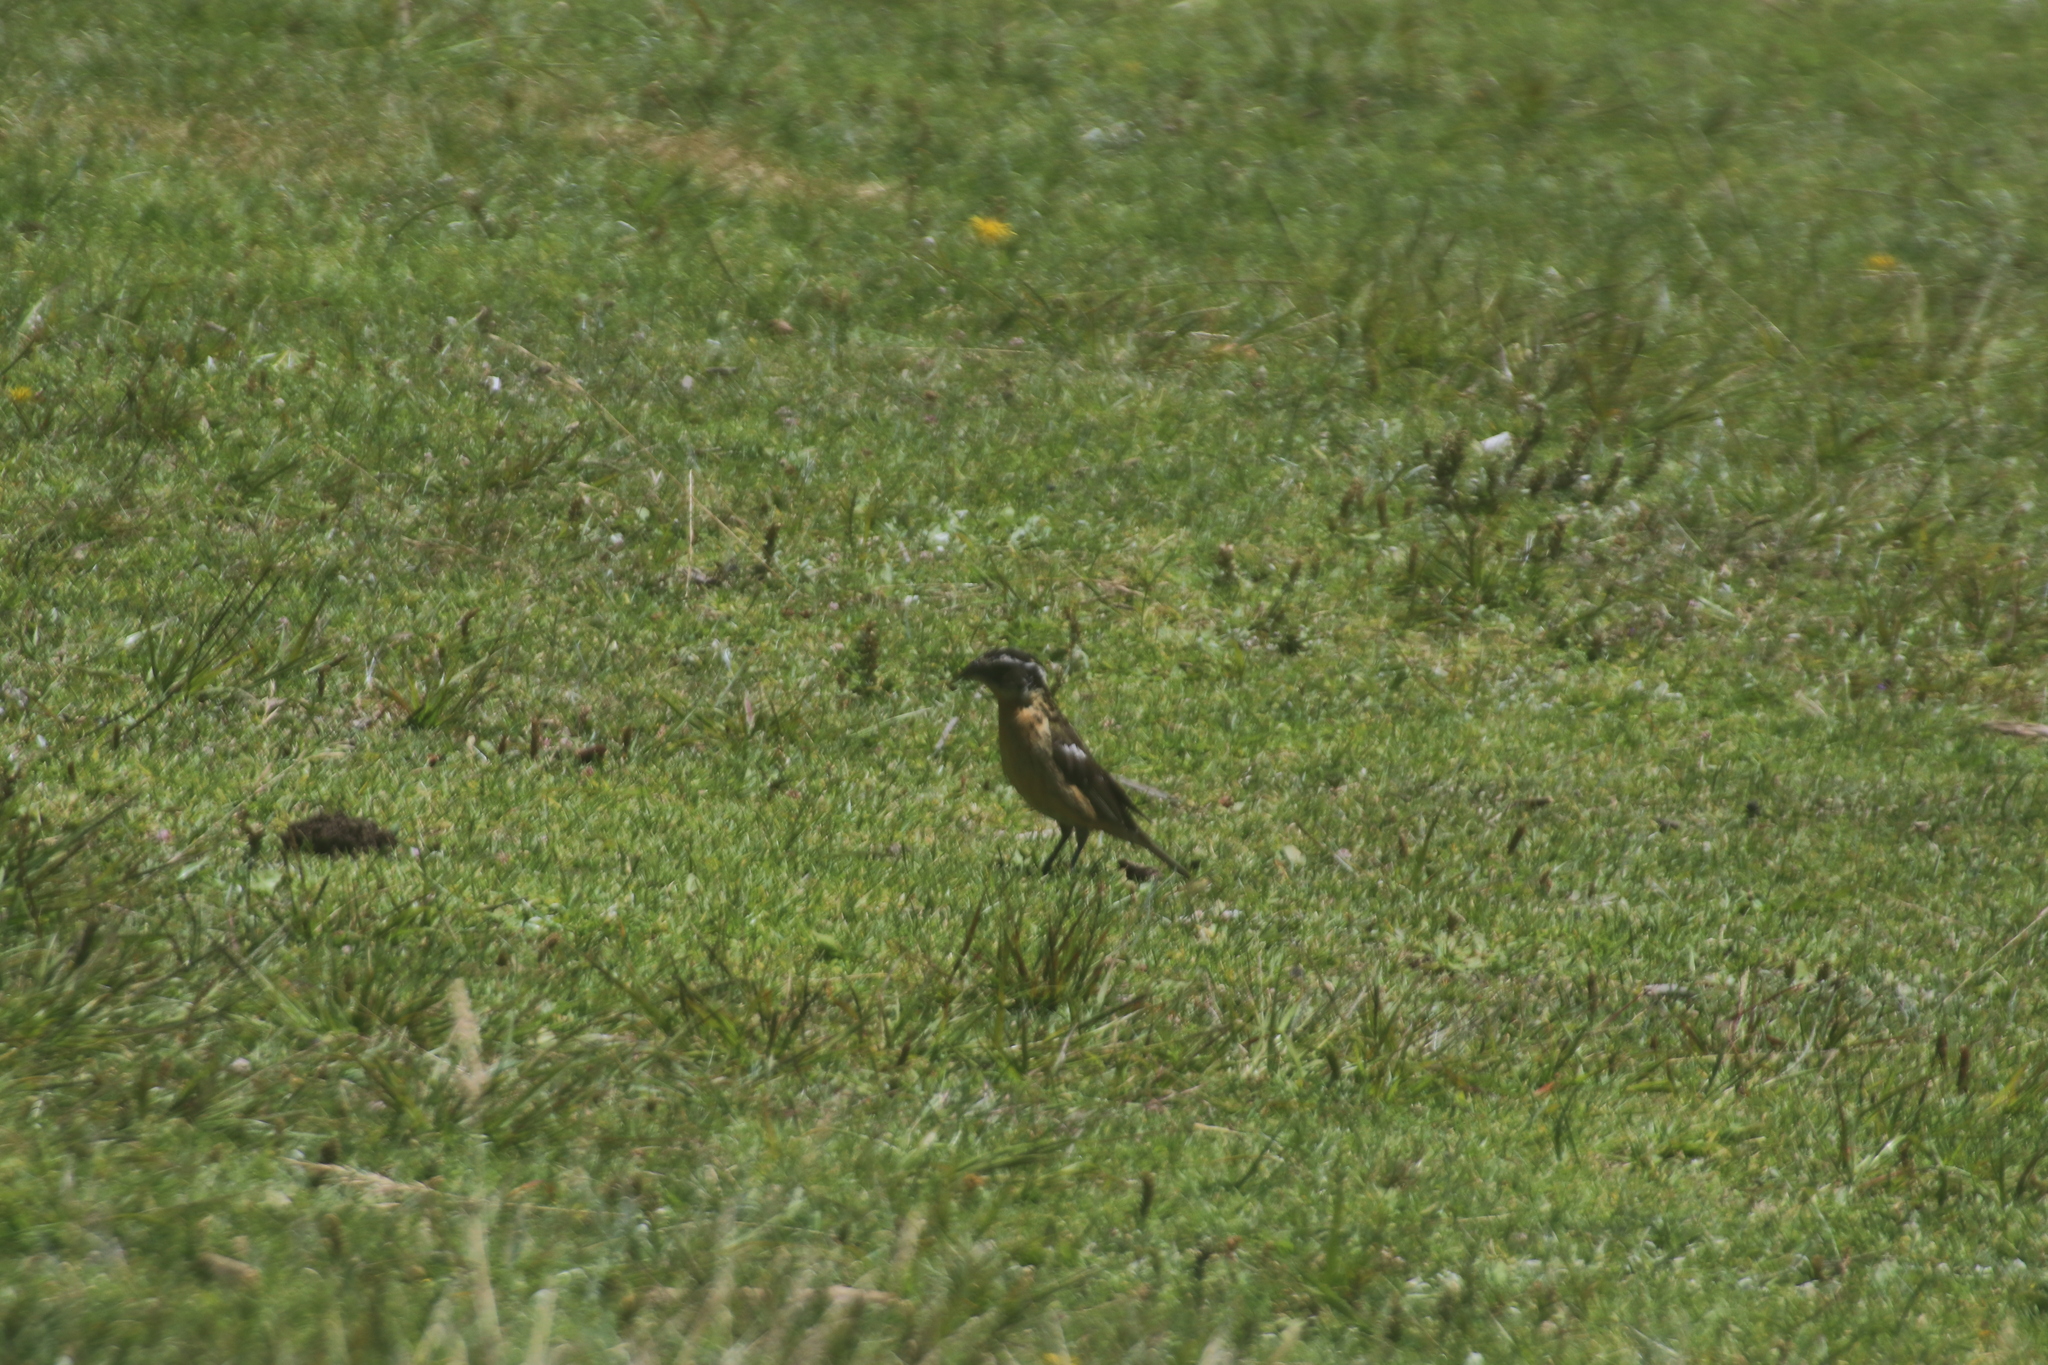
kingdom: Animalia
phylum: Chordata
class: Aves
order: Passeriformes
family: Cardinalidae
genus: Pheucticus
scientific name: Pheucticus melanocephalus
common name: Black-headed grosbeak
